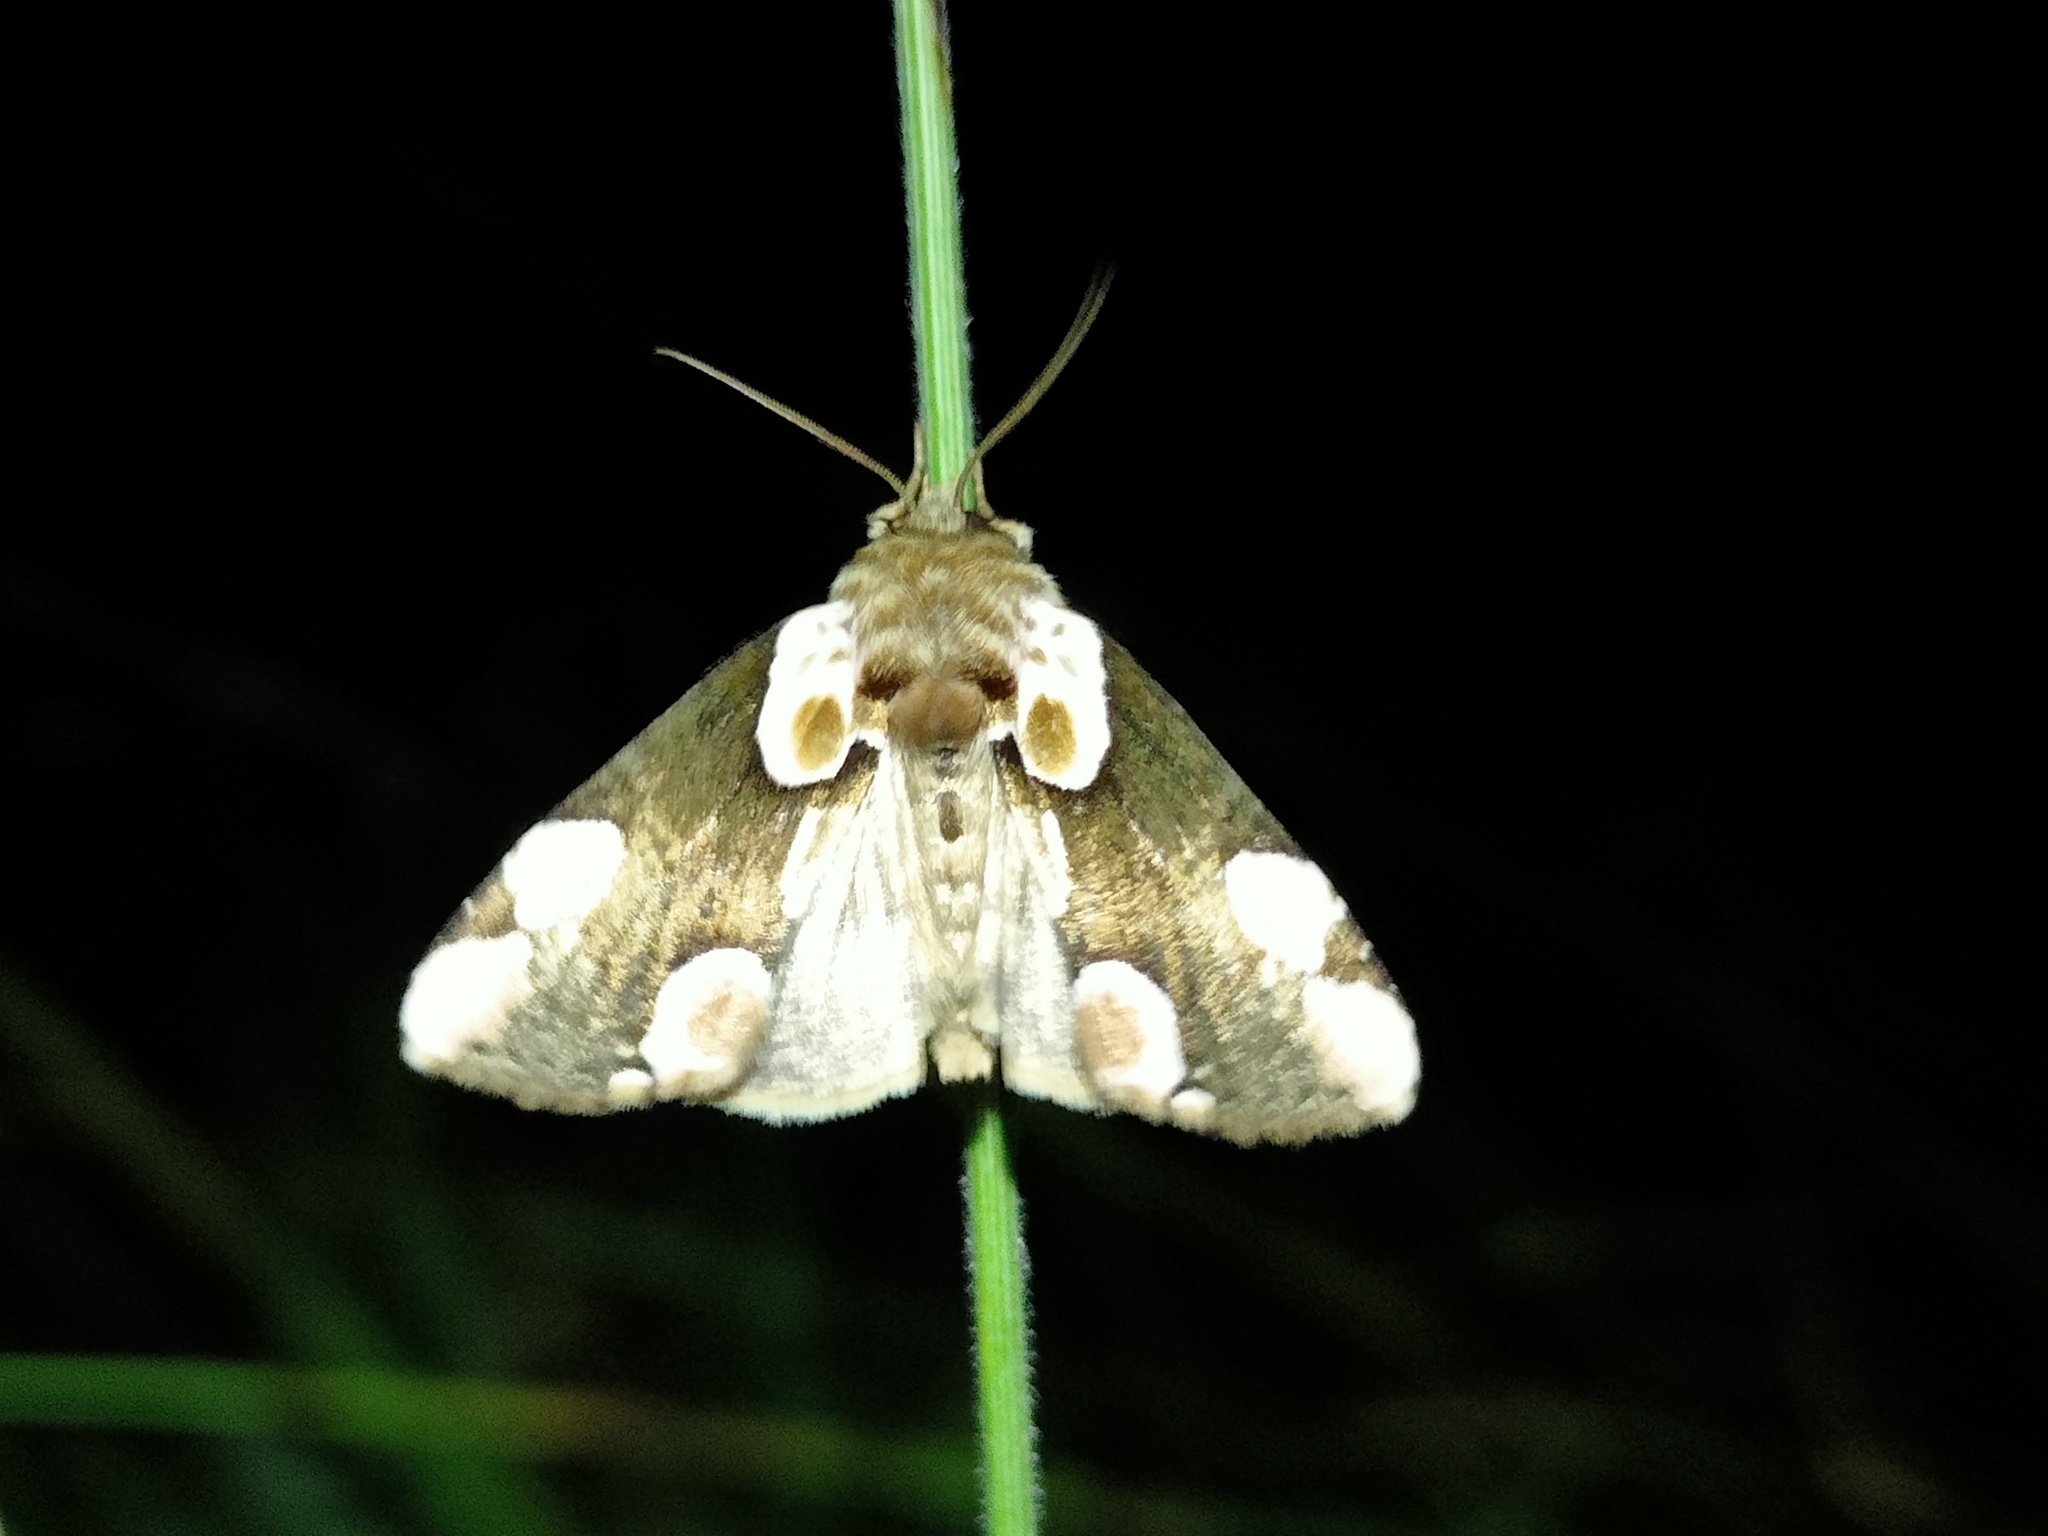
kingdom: Animalia
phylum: Arthropoda
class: Insecta
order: Lepidoptera
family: Drepanidae
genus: Thyatira
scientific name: Thyatira batis
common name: Peach blossom
